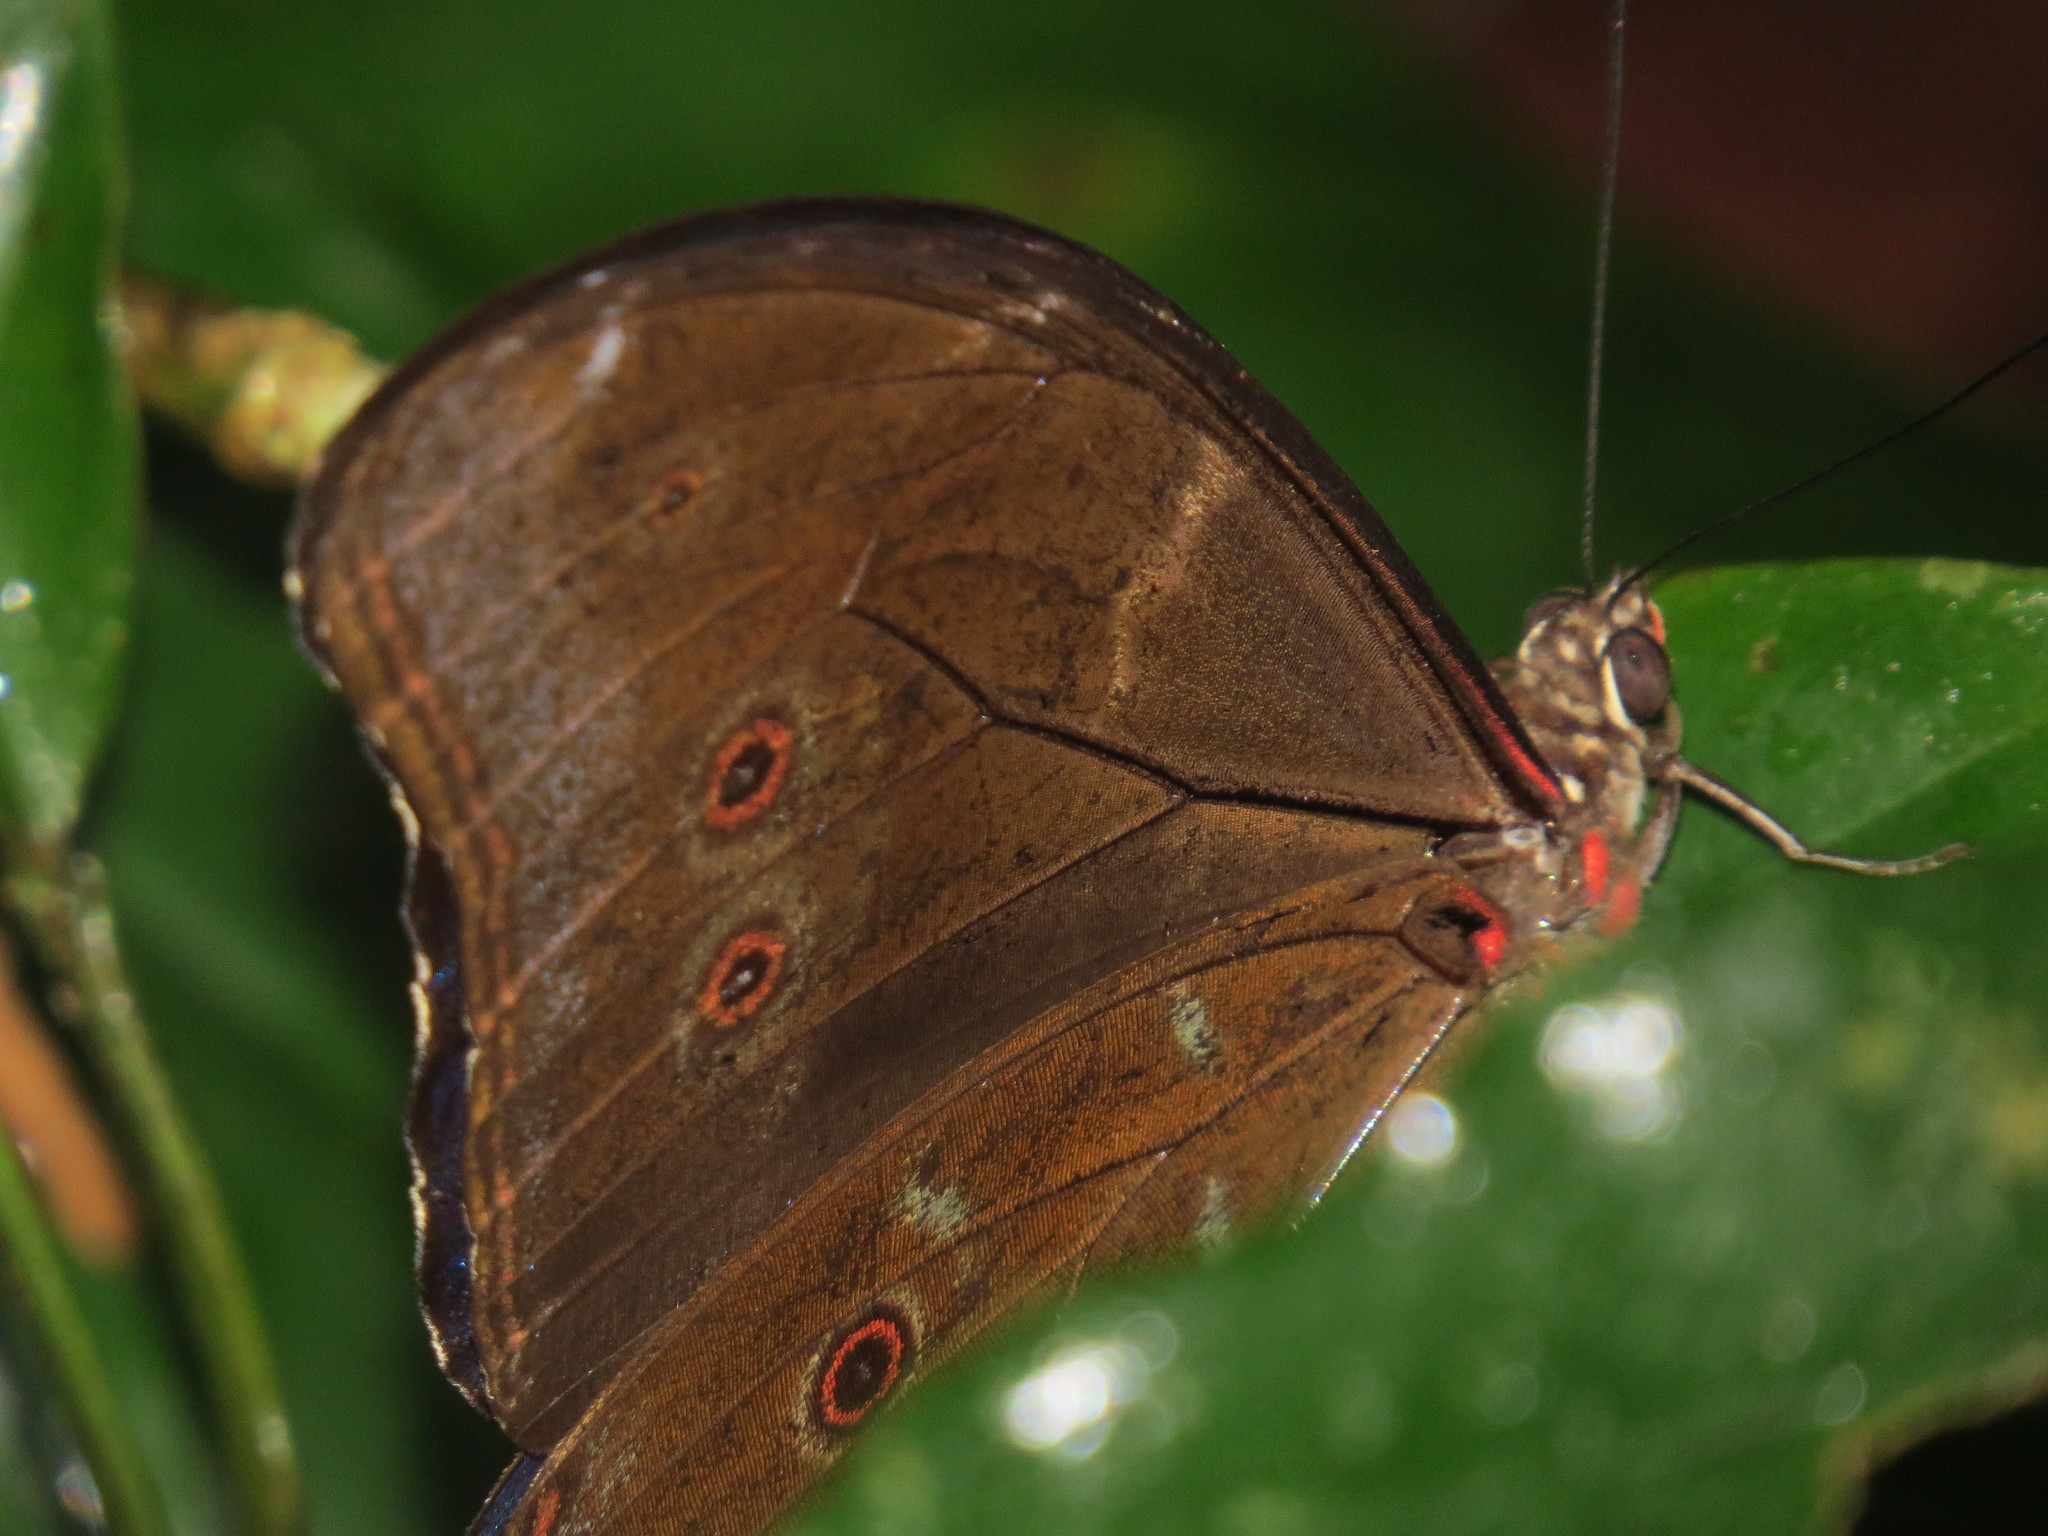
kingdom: Animalia
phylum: Arthropoda
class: Insecta
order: Lepidoptera
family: Nymphalidae
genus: Morpho
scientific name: Morpho menelaus
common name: Menelaus morpho
